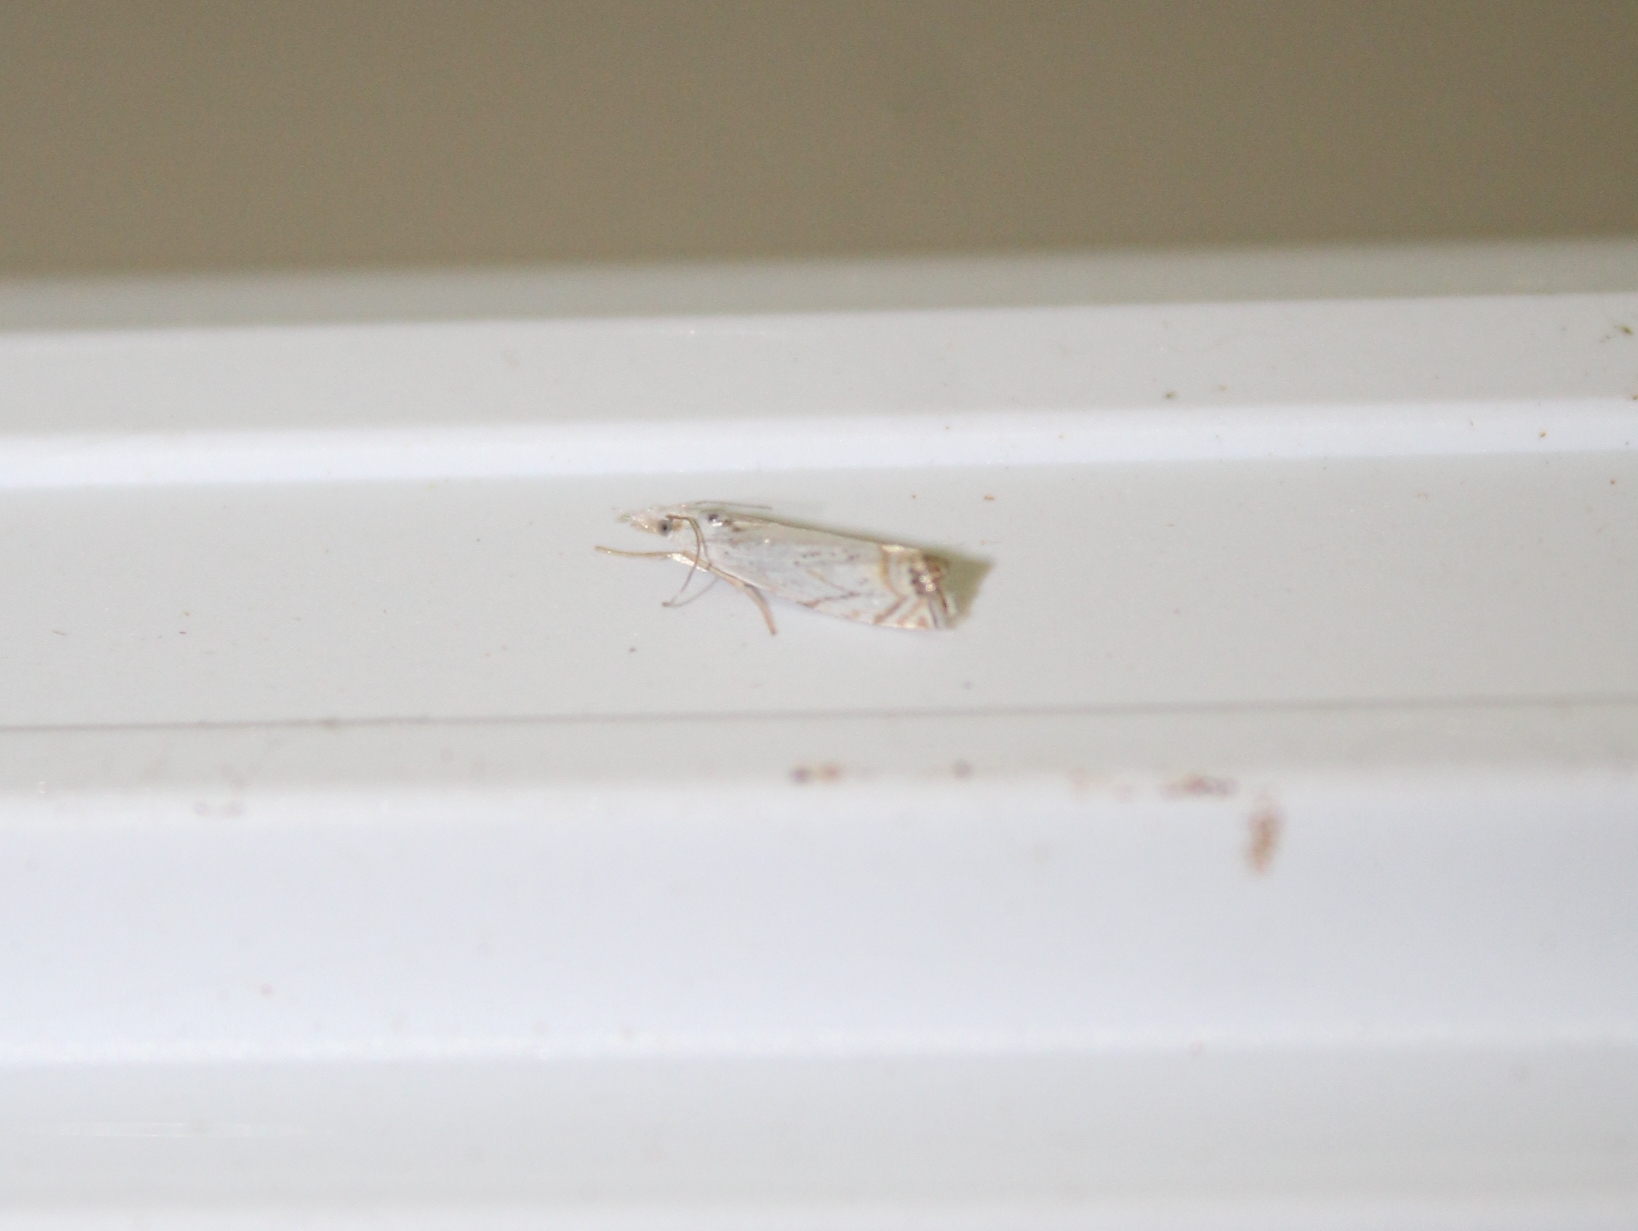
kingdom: Animalia
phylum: Arthropoda
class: Insecta
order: Lepidoptera
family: Crambidae
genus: Crambus
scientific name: Crambus albellus
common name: Small white grass-veneer
